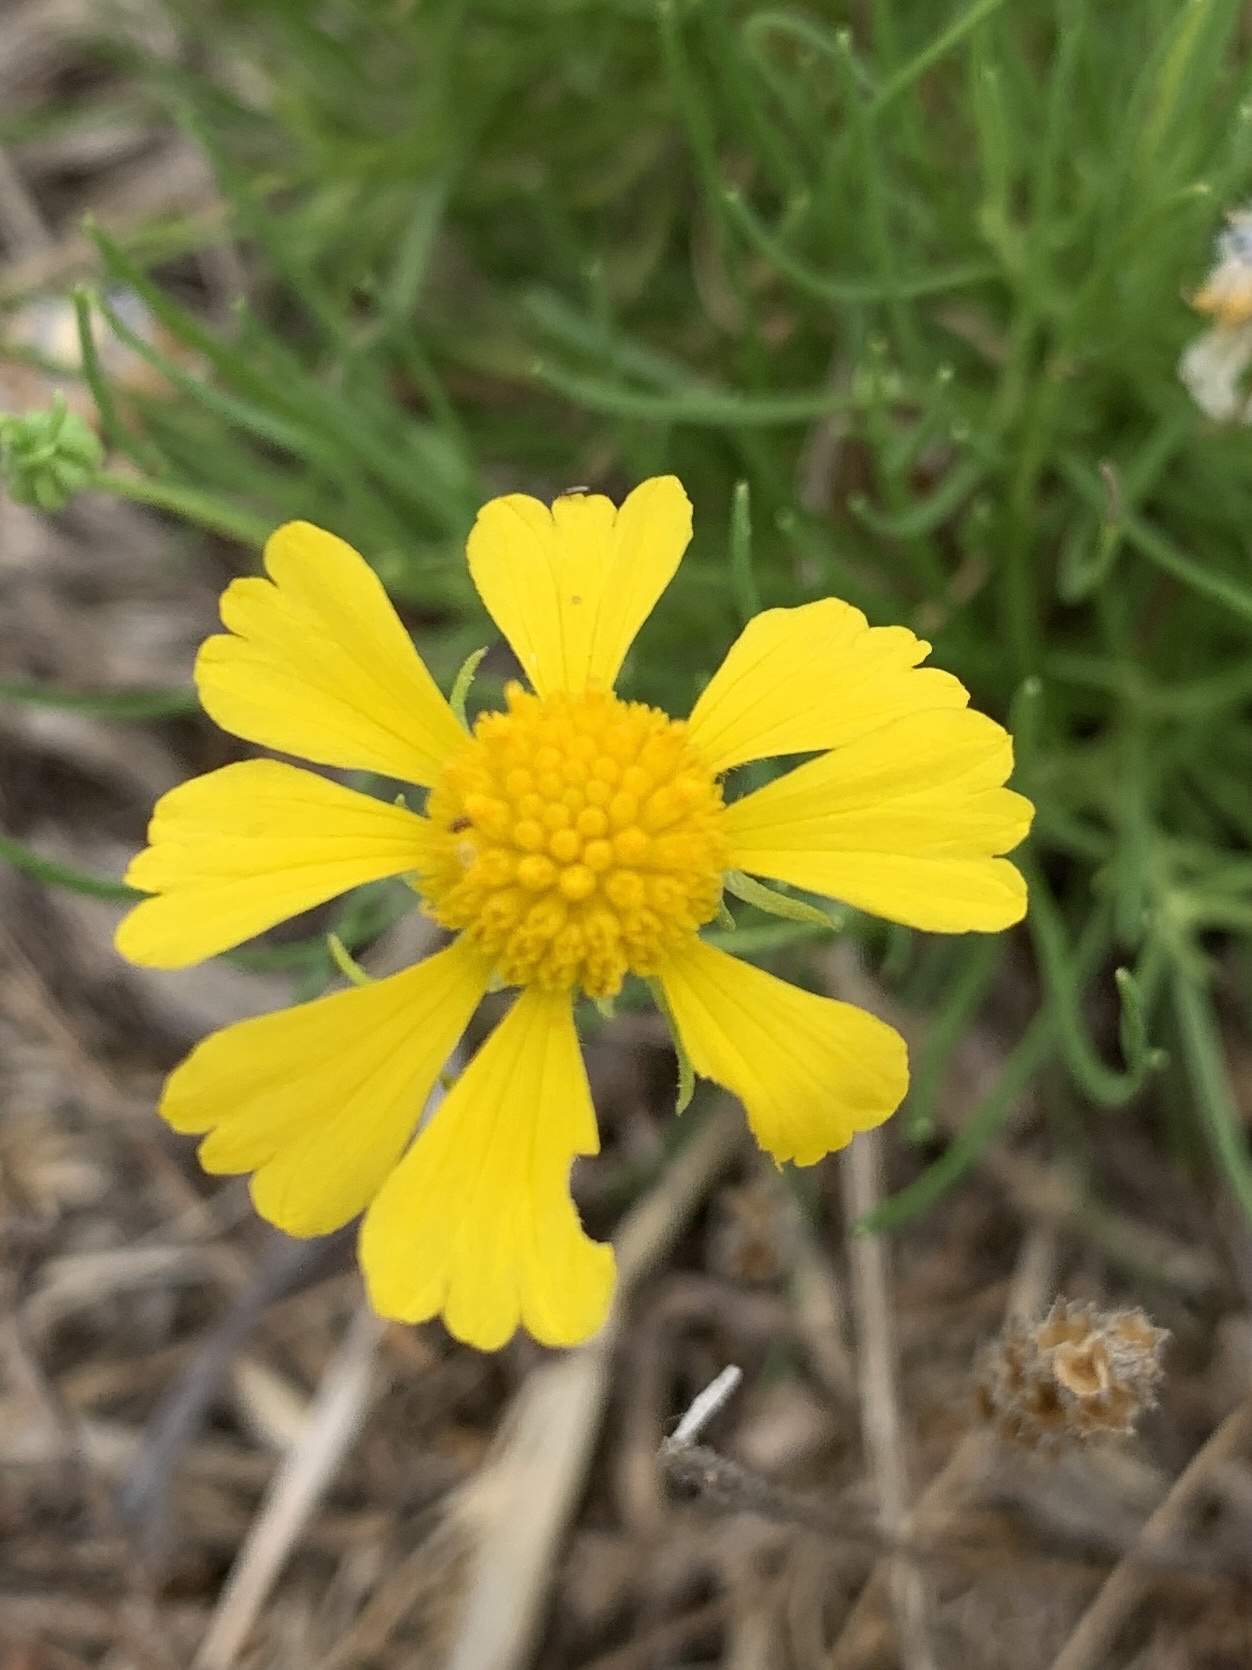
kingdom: Plantae
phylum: Tracheophyta
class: Magnoliopsida
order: Asterales
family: Asteraceae
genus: Helenium
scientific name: Helenium amarum
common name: Bitter sneezeweed
